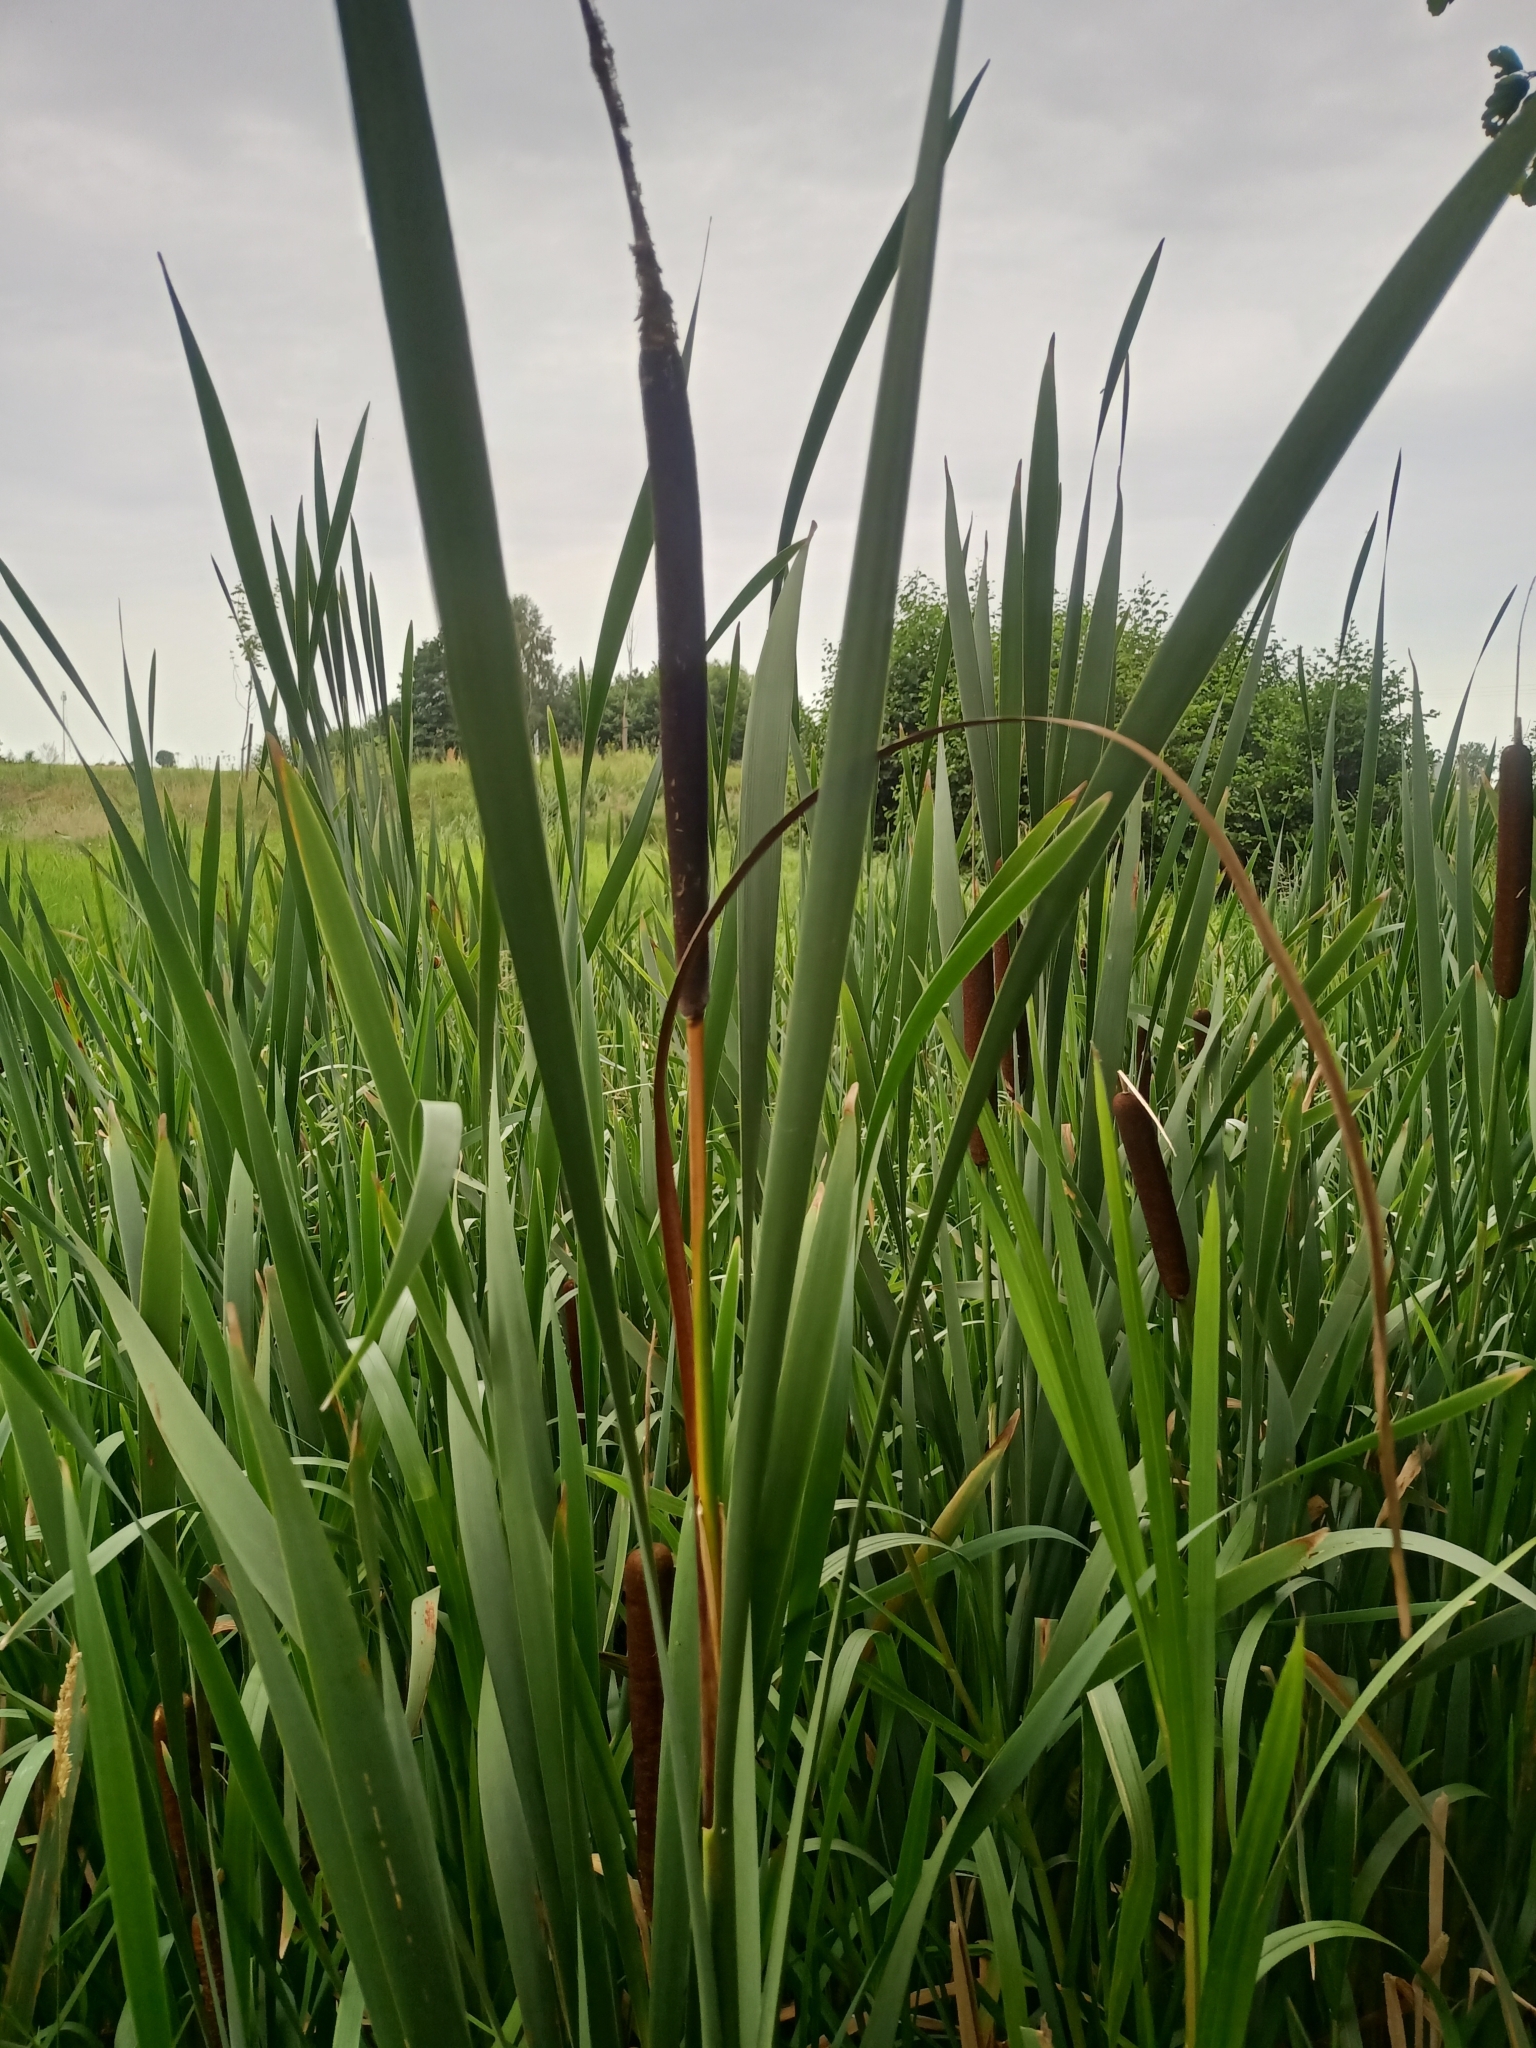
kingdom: Plantae
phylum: Tracheophyta
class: Liliopsida
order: Poales
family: Typhaceae
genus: Typha
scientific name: Typha latifolia
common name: Broadleaf cattail
